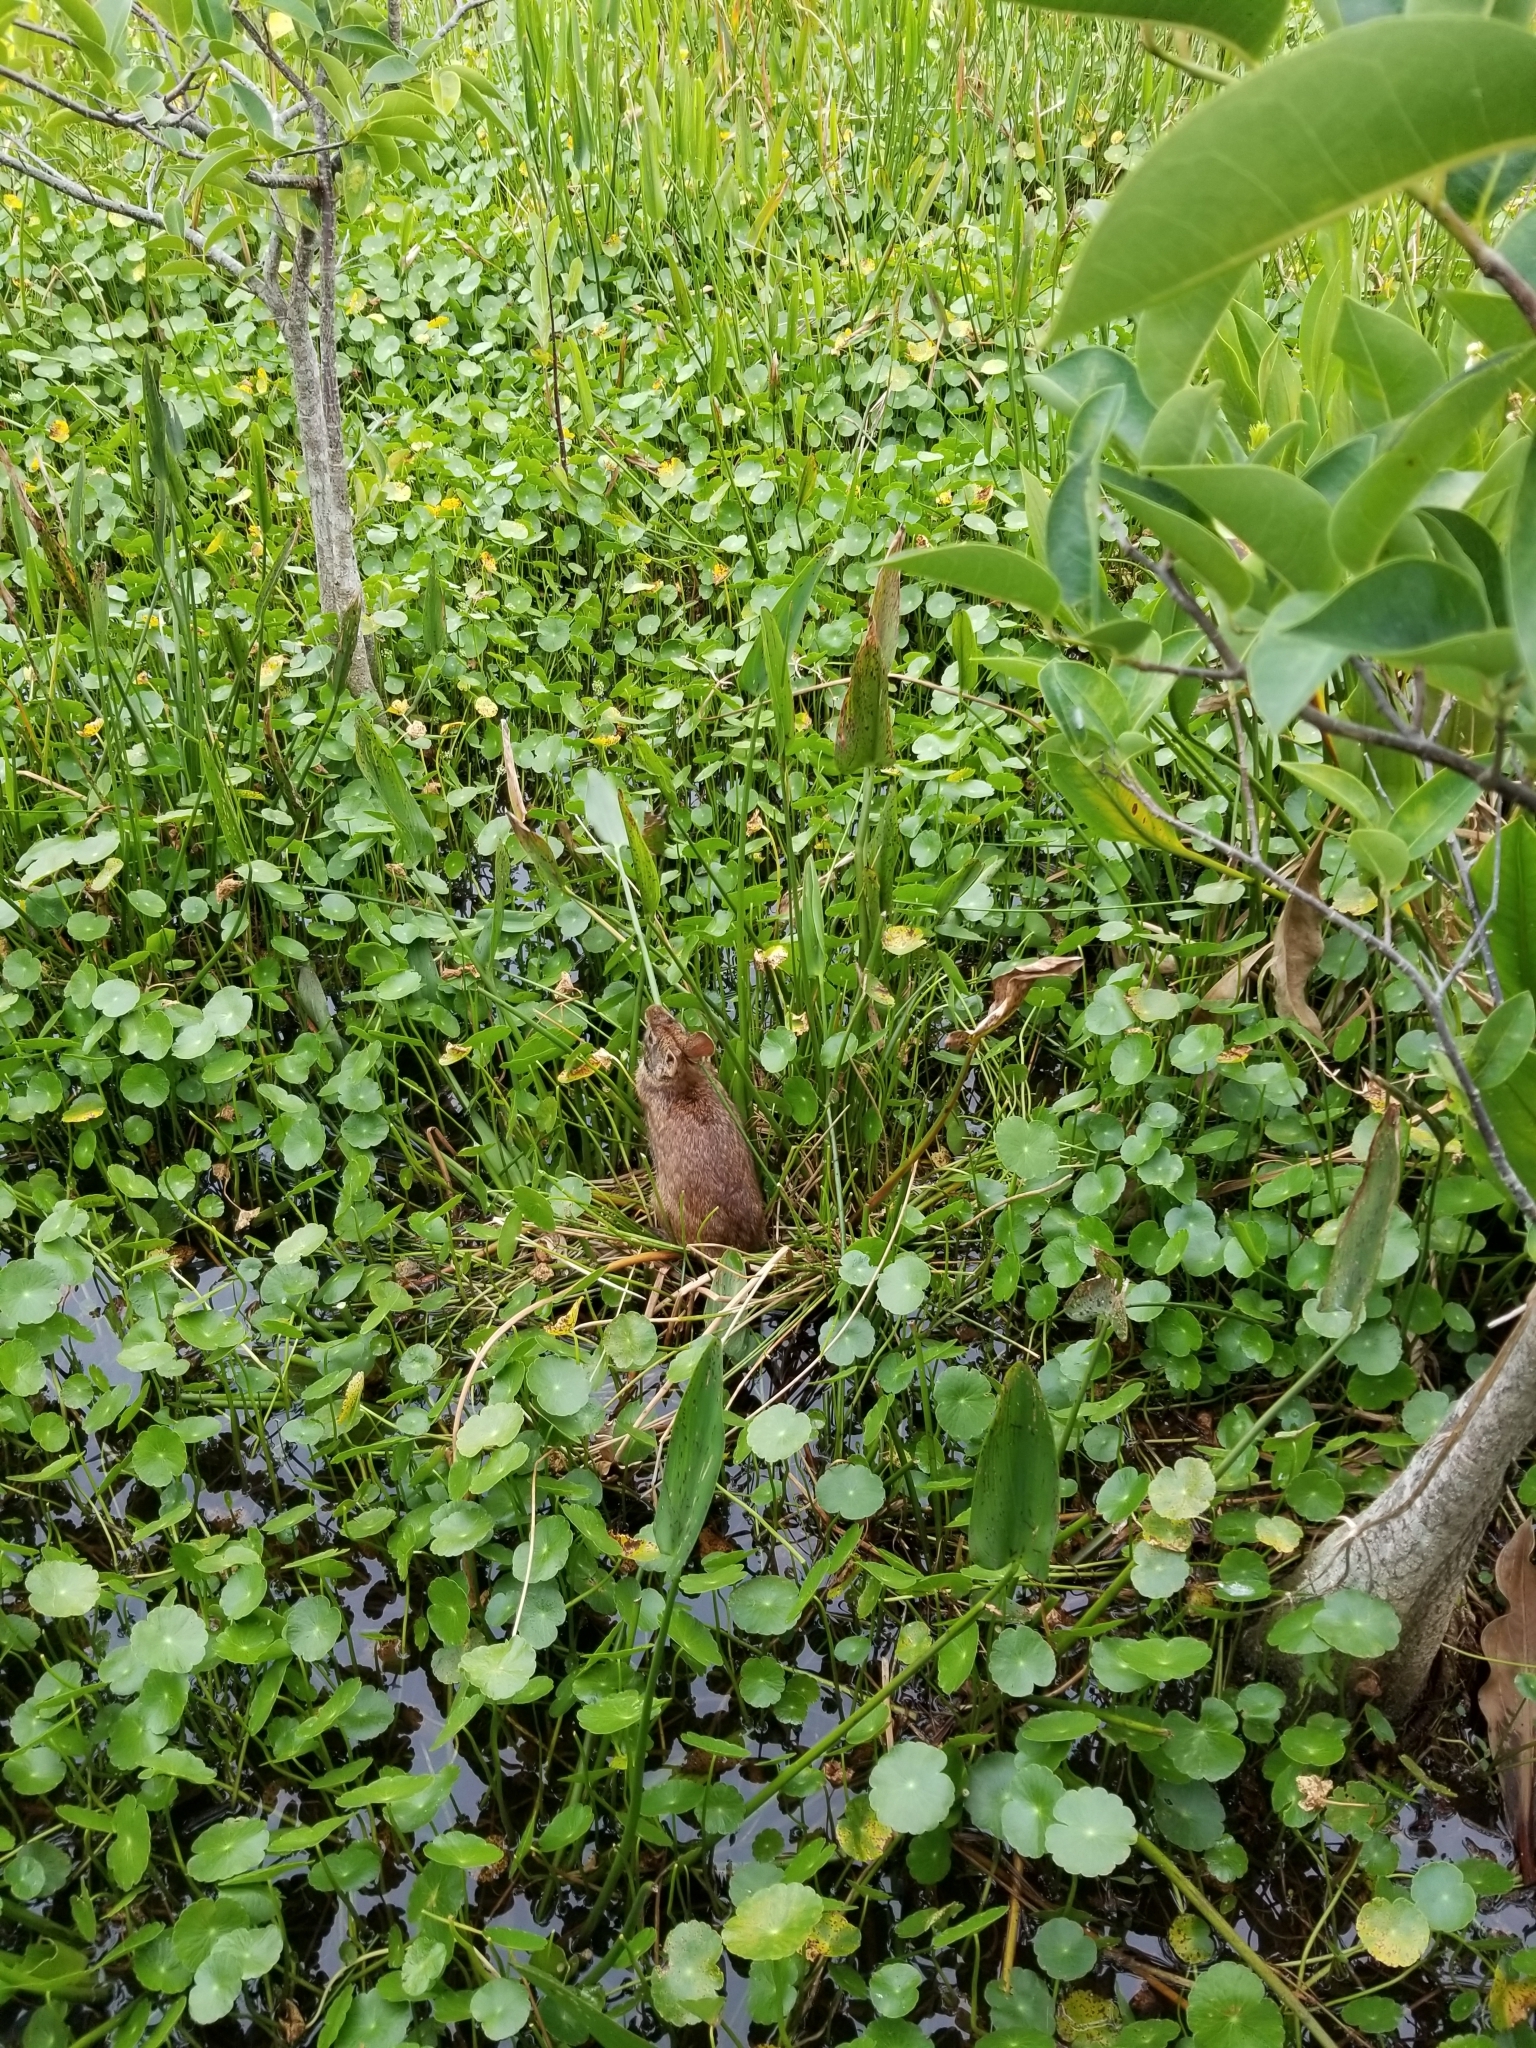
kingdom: Animalia
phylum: Chordata
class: Mammalia
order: Lagomorpha
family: Leporidae
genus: Sylvilagus
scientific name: Sylvilagus palustris
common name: Marsh rabbit
